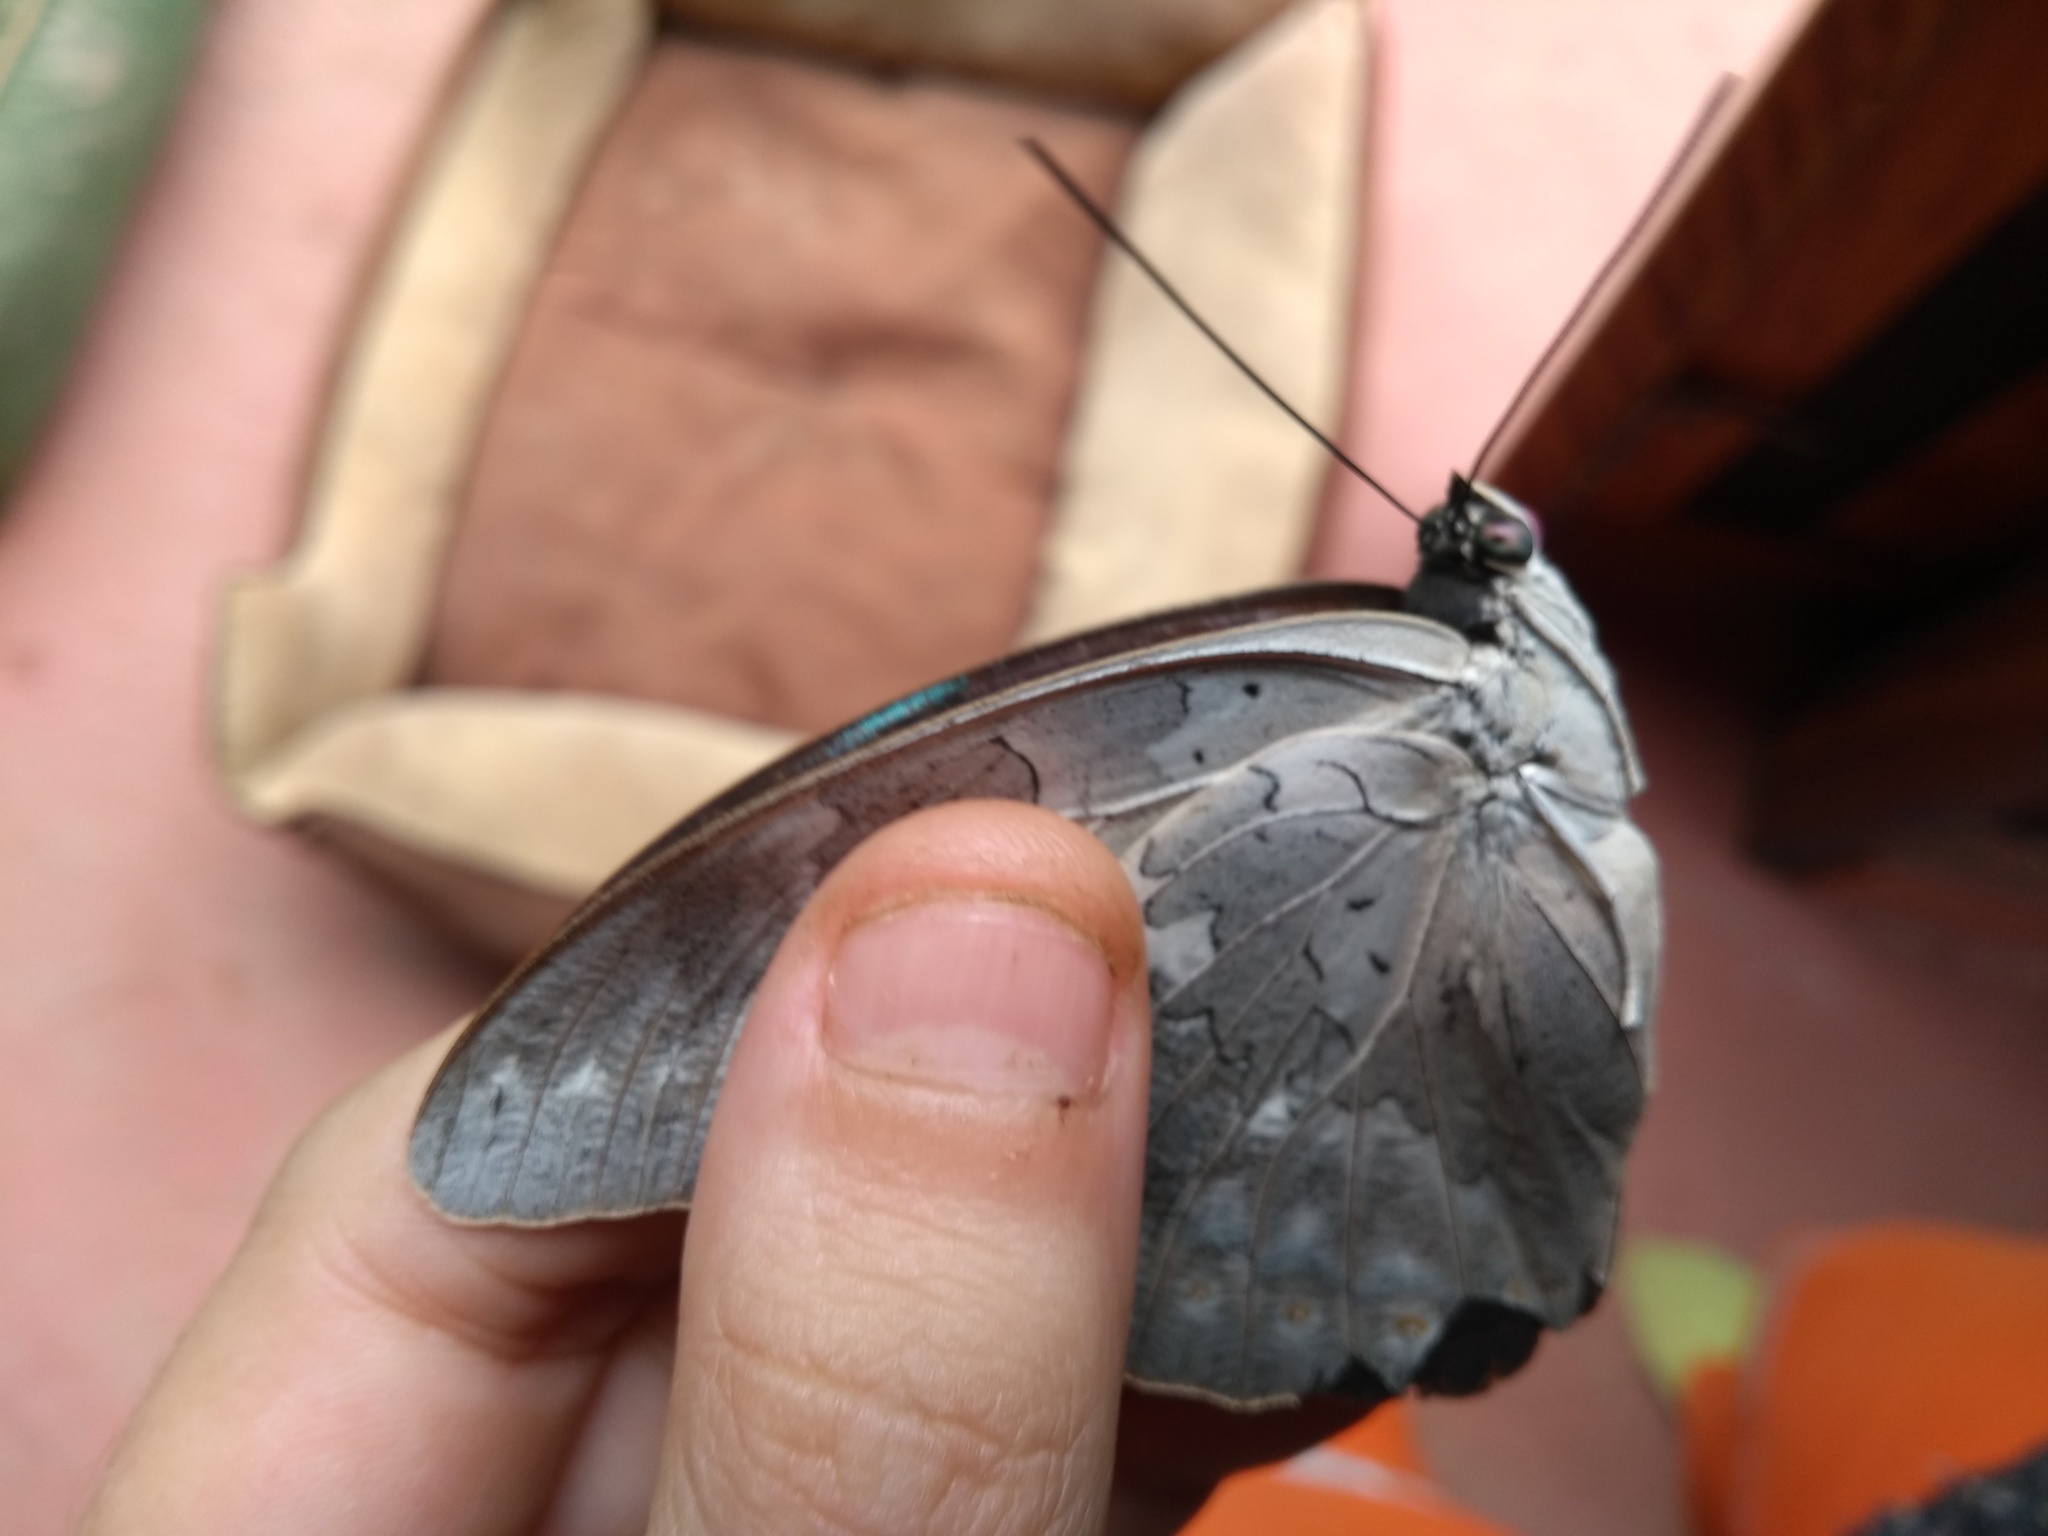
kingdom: Animalia
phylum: Arthropoda
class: Insecta
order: Lepidoptera
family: Nymphalidae
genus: Prepona
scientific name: Prepona demophon
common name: One-spotted prepona
